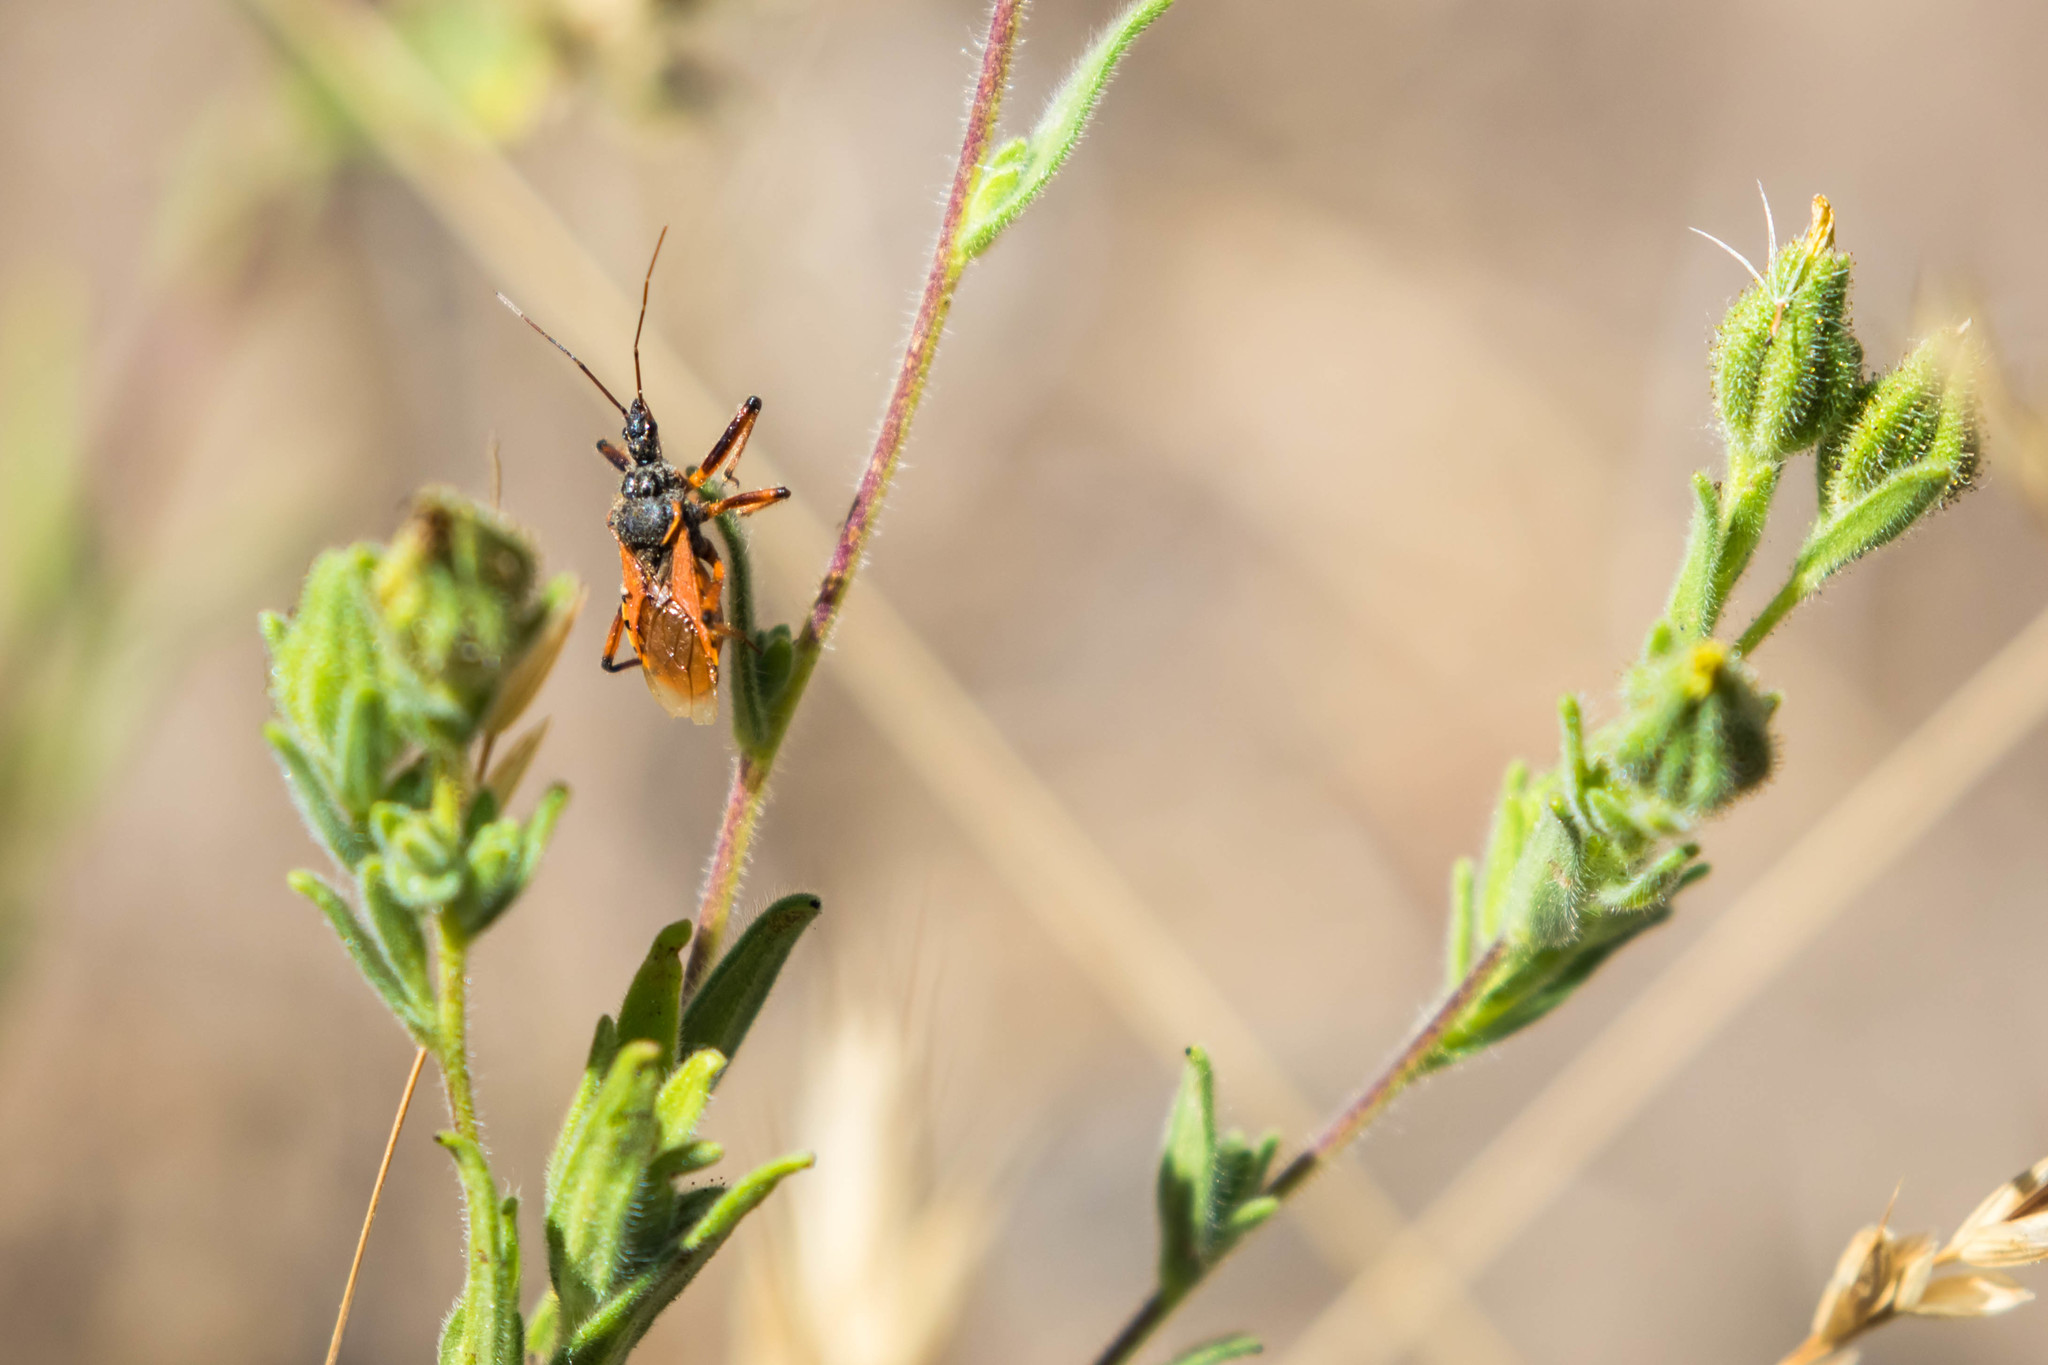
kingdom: Animalia
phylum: Arthropoda
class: Insecta
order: Hemiptera
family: Reduviidae
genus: Rhynocoris
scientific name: Rhynocoris ventralis
